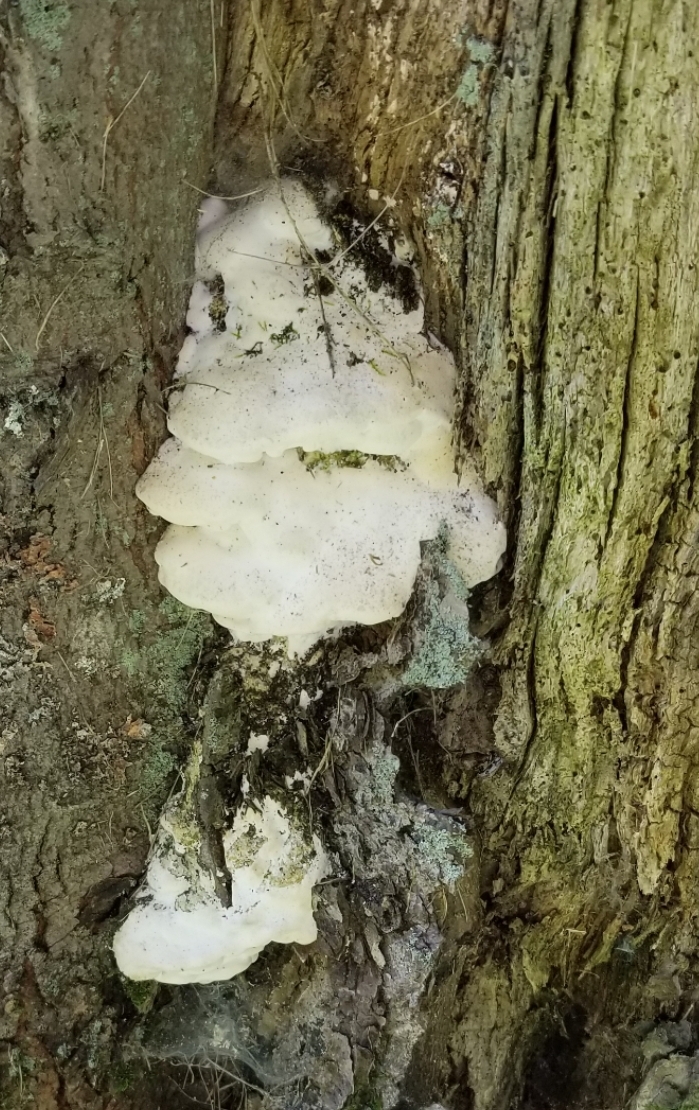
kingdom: Fungi
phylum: Basidiomycota
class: Agaricomycetes
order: Hymenochaetales
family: Oxyporaceae
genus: Oxyporus
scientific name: Oxyporus populinus
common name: Poplar bracket
